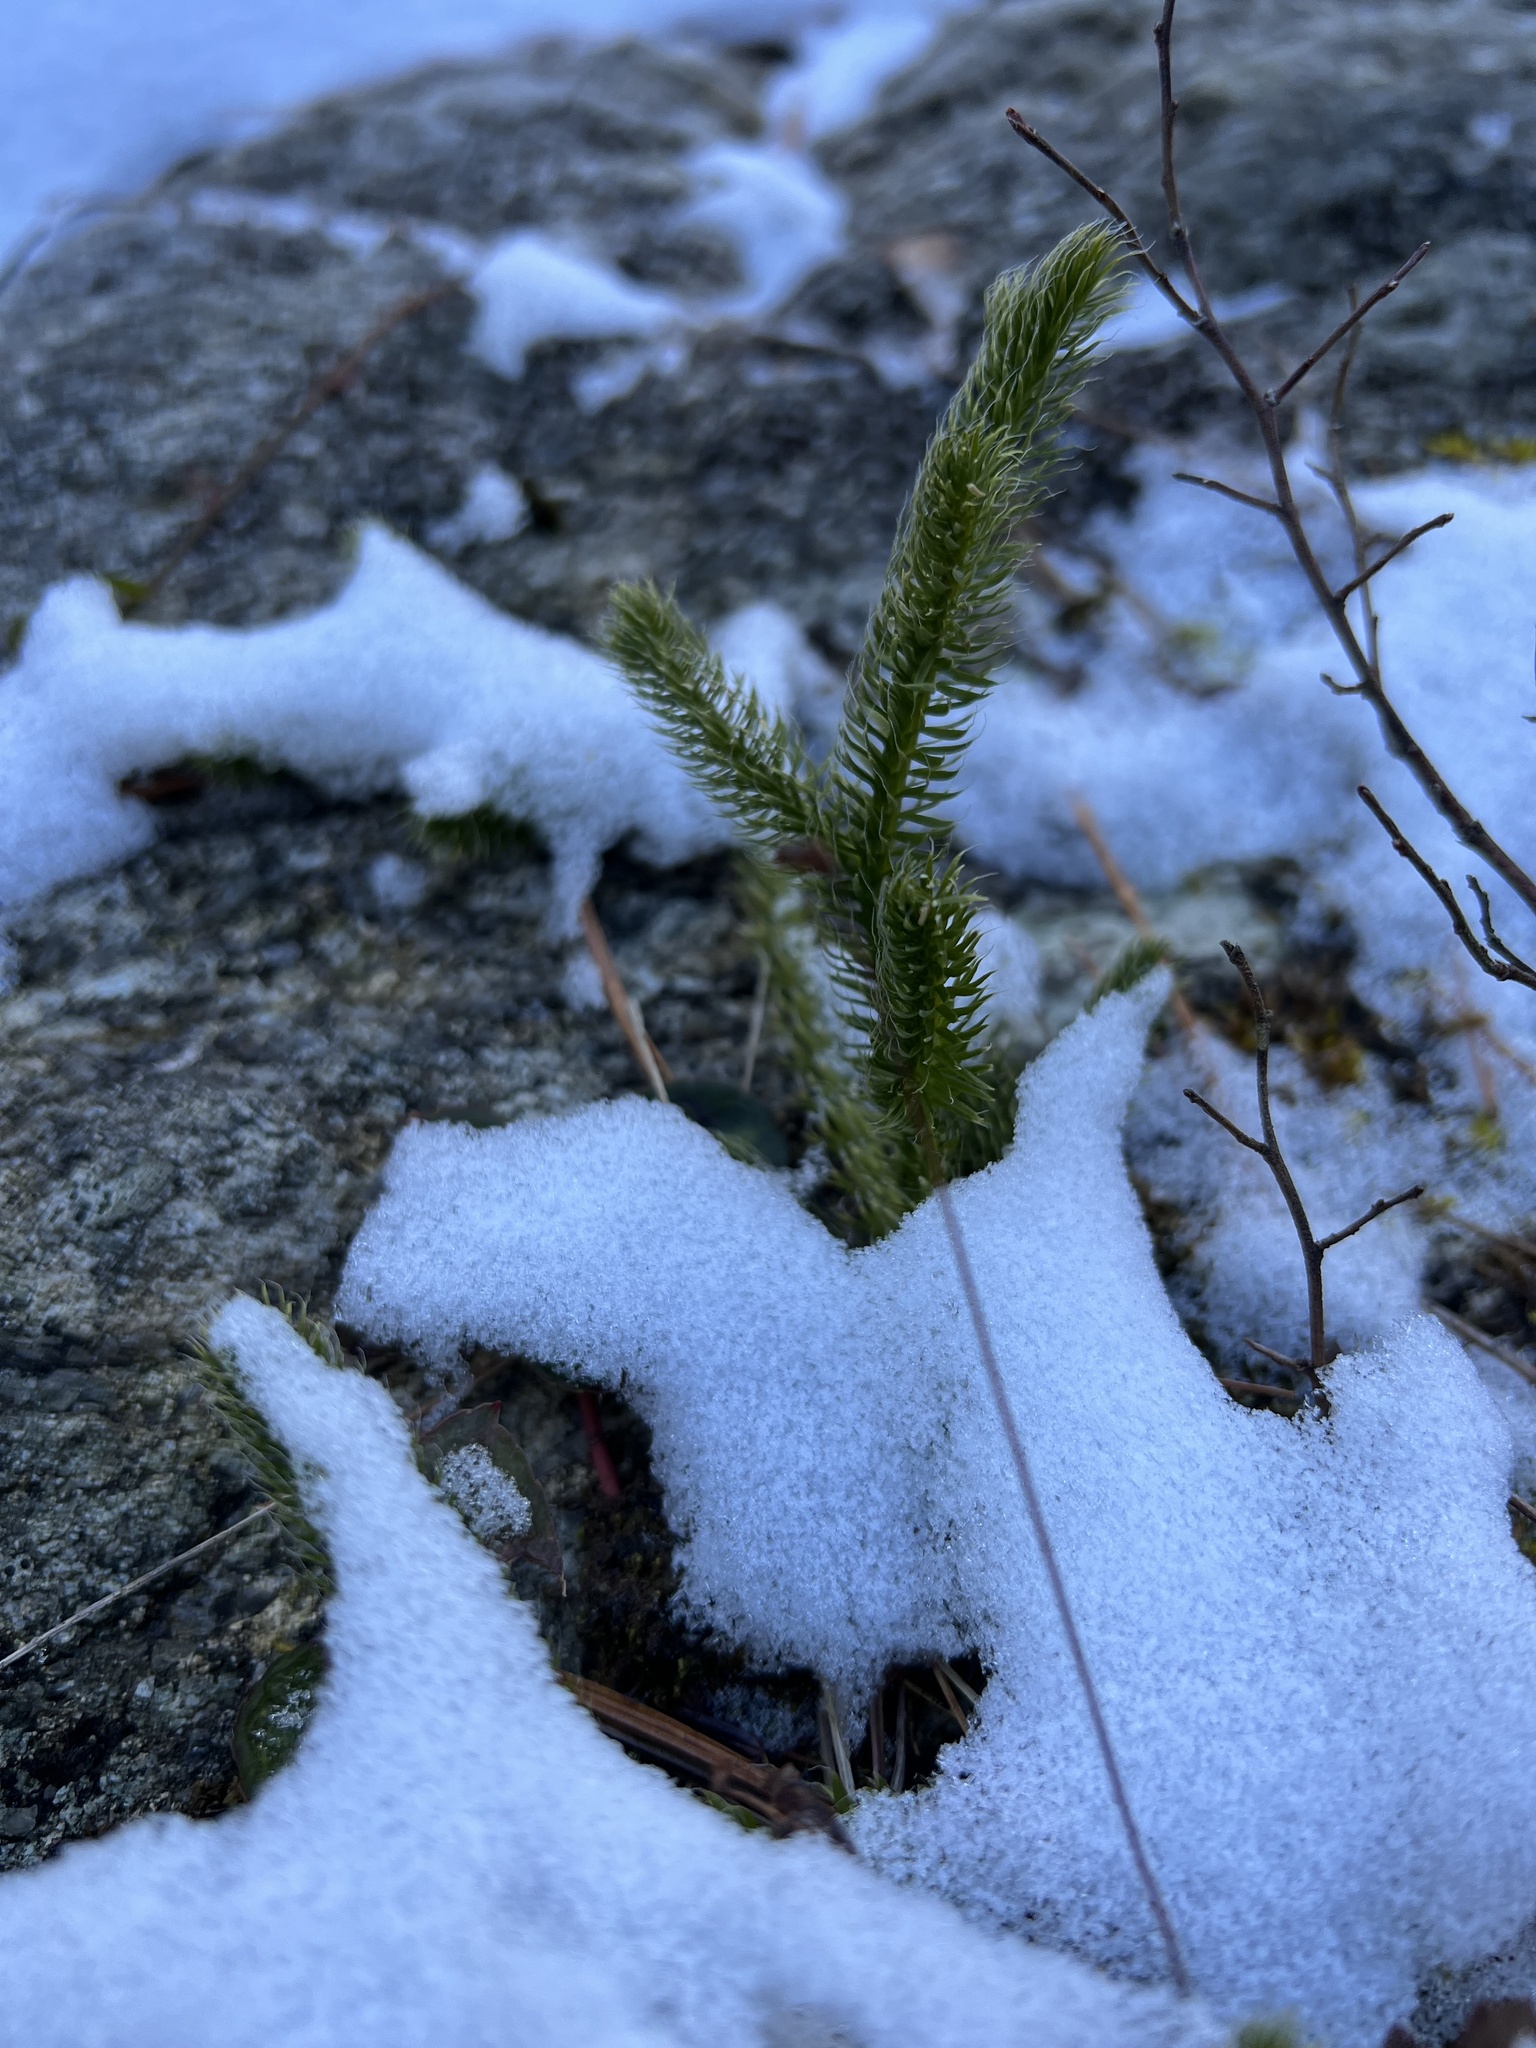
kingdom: Plantae
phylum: Tracheophyta
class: Lycopodiopsida
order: Lycopodiales
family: Lycopodiaceae
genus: Lycopodium
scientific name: Lycopodium clavatum
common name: Stag's-horn clubmoss
